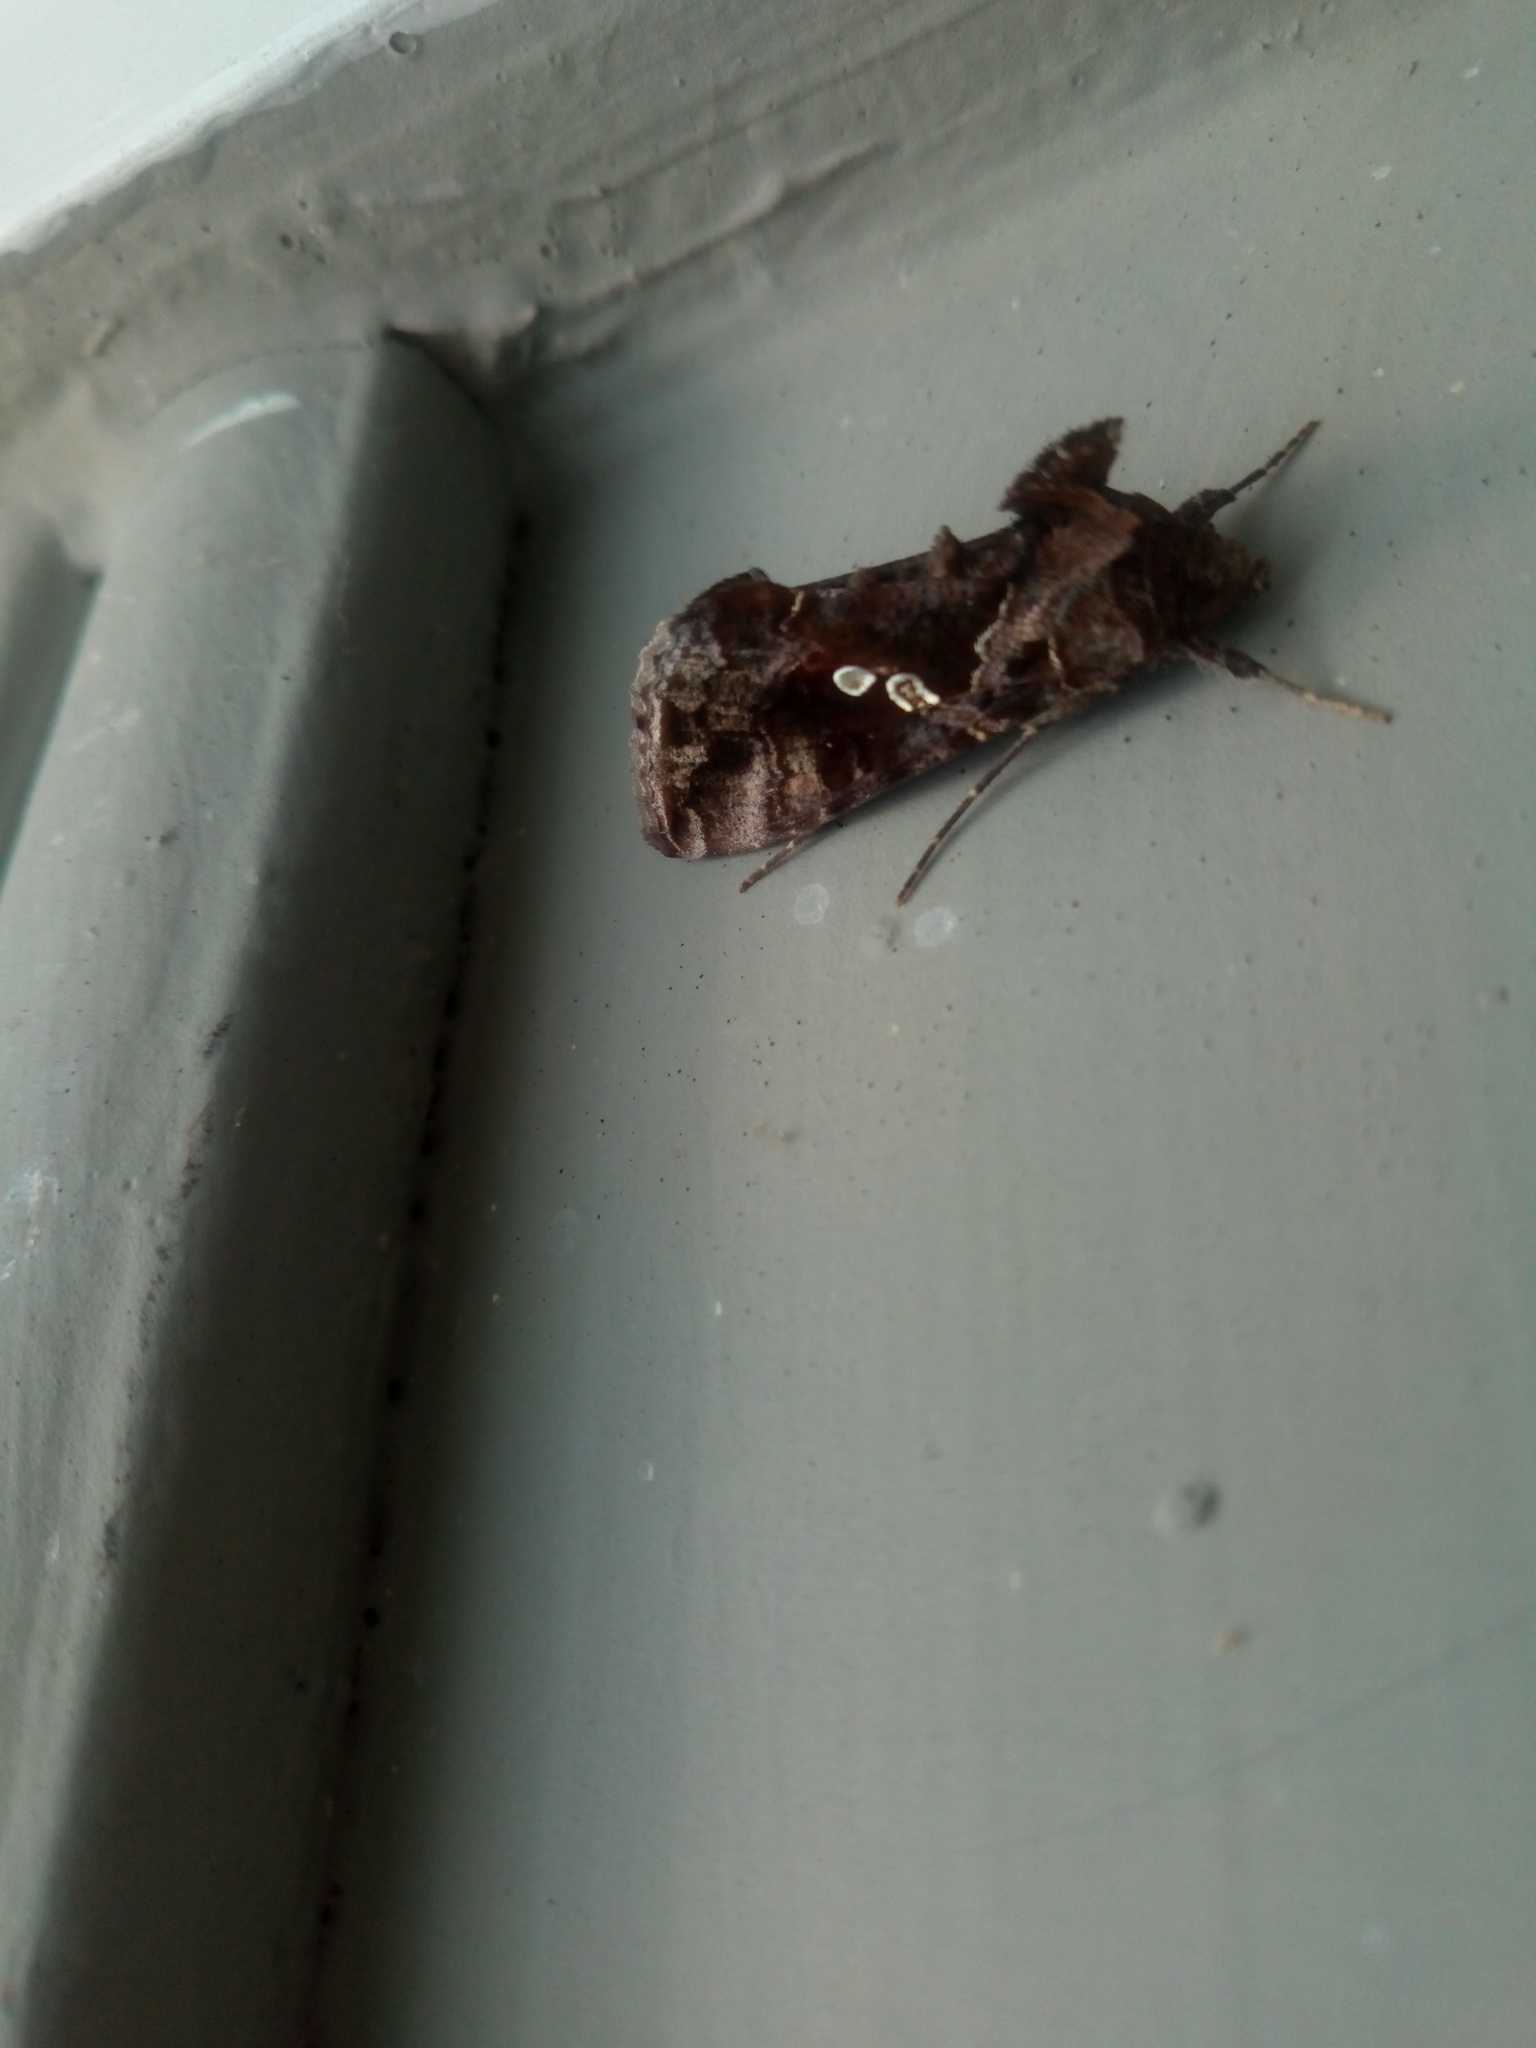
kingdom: Animalia
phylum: Arthropoda
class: Insecta
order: Lepidoptera
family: Noctuidae
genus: Chrysodeixis
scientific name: Chrysodeixis includens
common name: Cutworm moth
